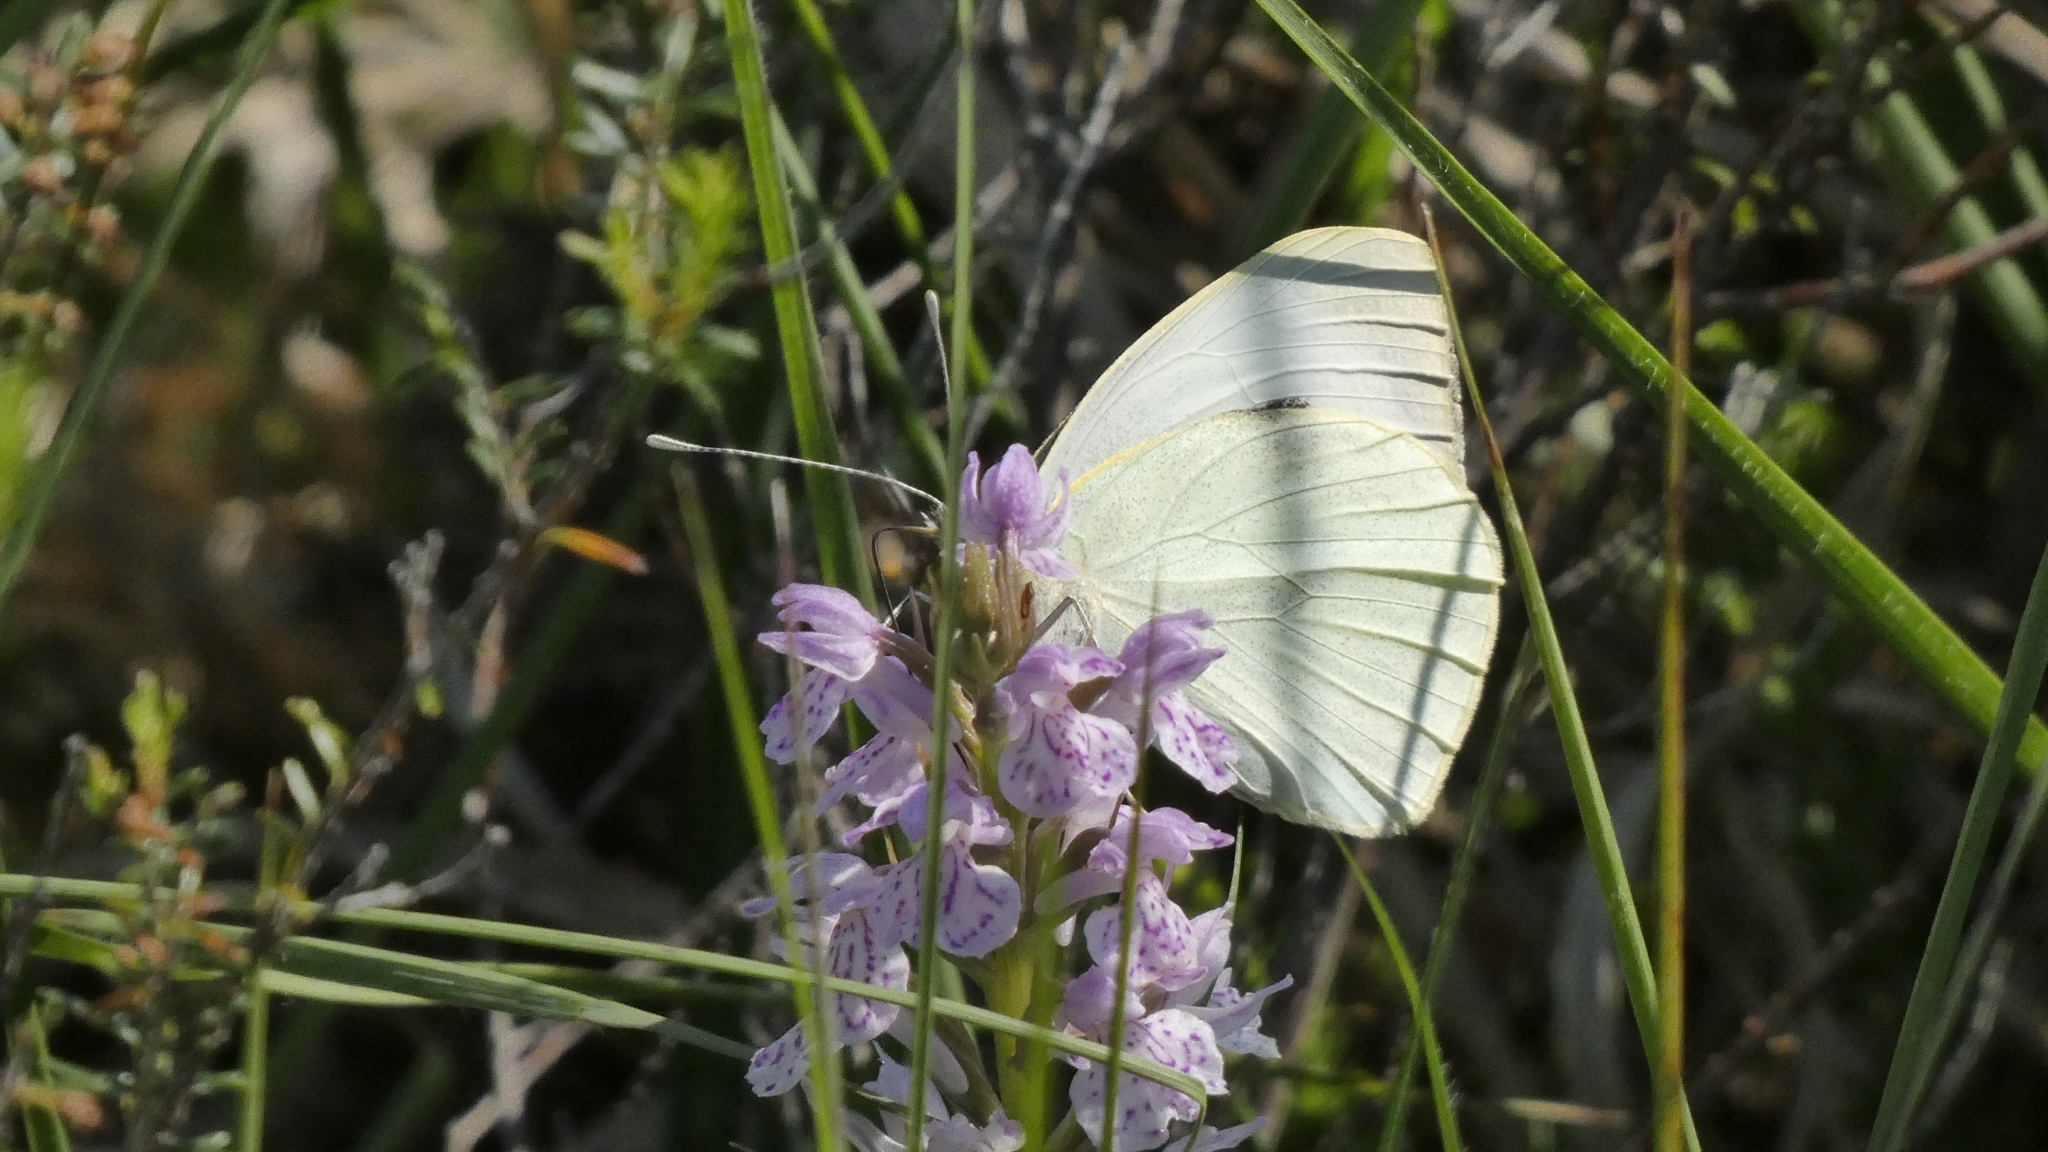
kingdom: Animalia
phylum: Arthropoda
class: Insecta
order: Lepidoptera
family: Pieridae
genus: Pieris
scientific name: Pieris brassicae
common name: Large white
